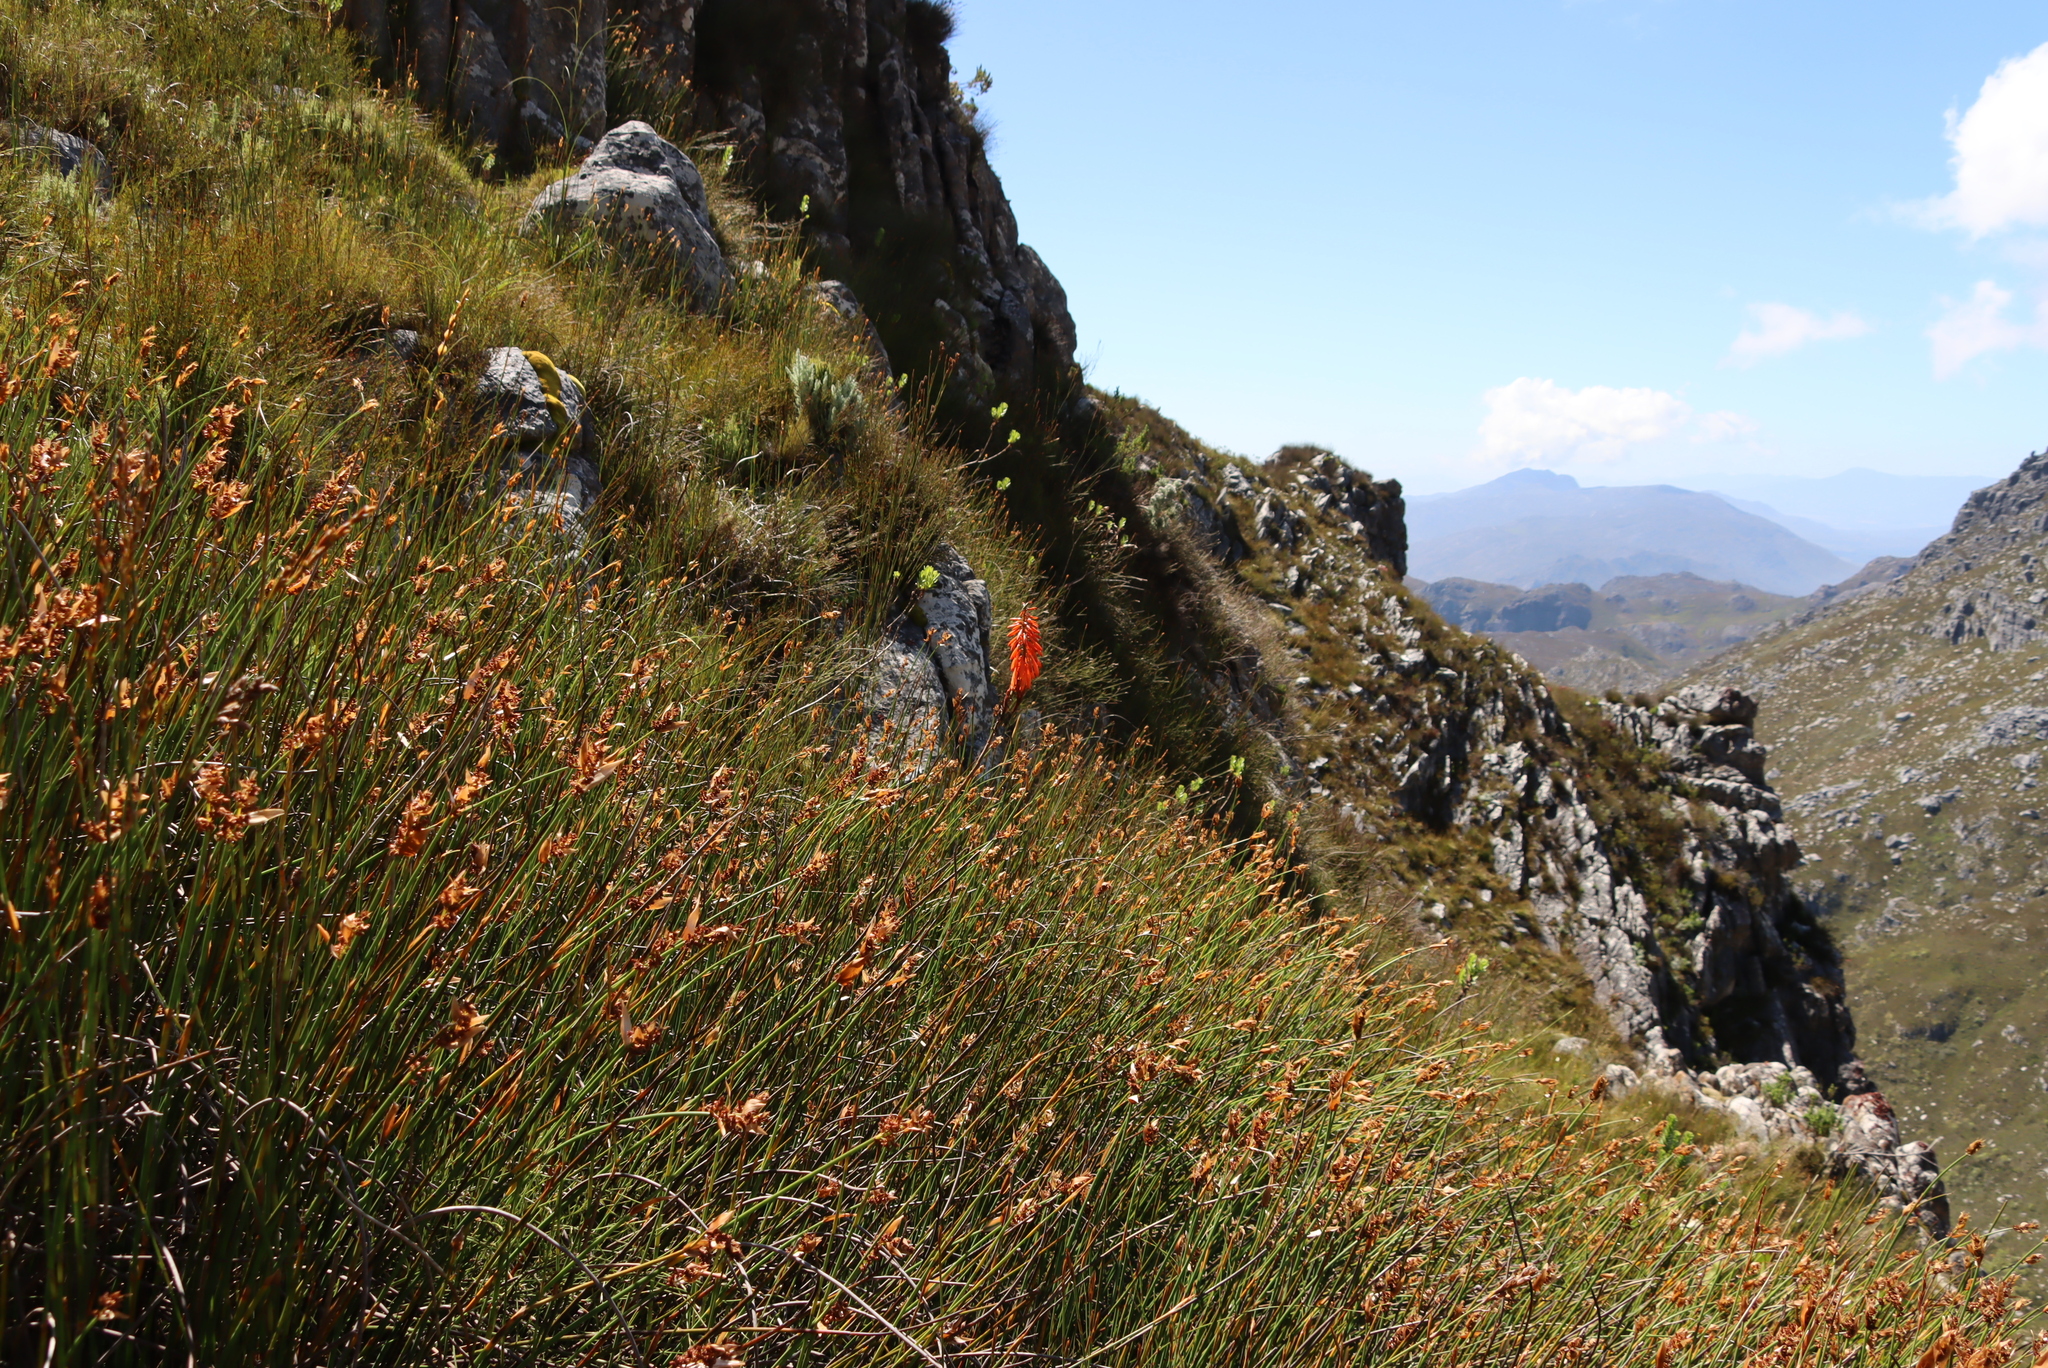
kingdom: Plantae
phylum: Tracheophyta
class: Liliopsida
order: Asparagales
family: Asphodelaceae
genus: Kniphofia
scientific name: Kniphofia tabularis
